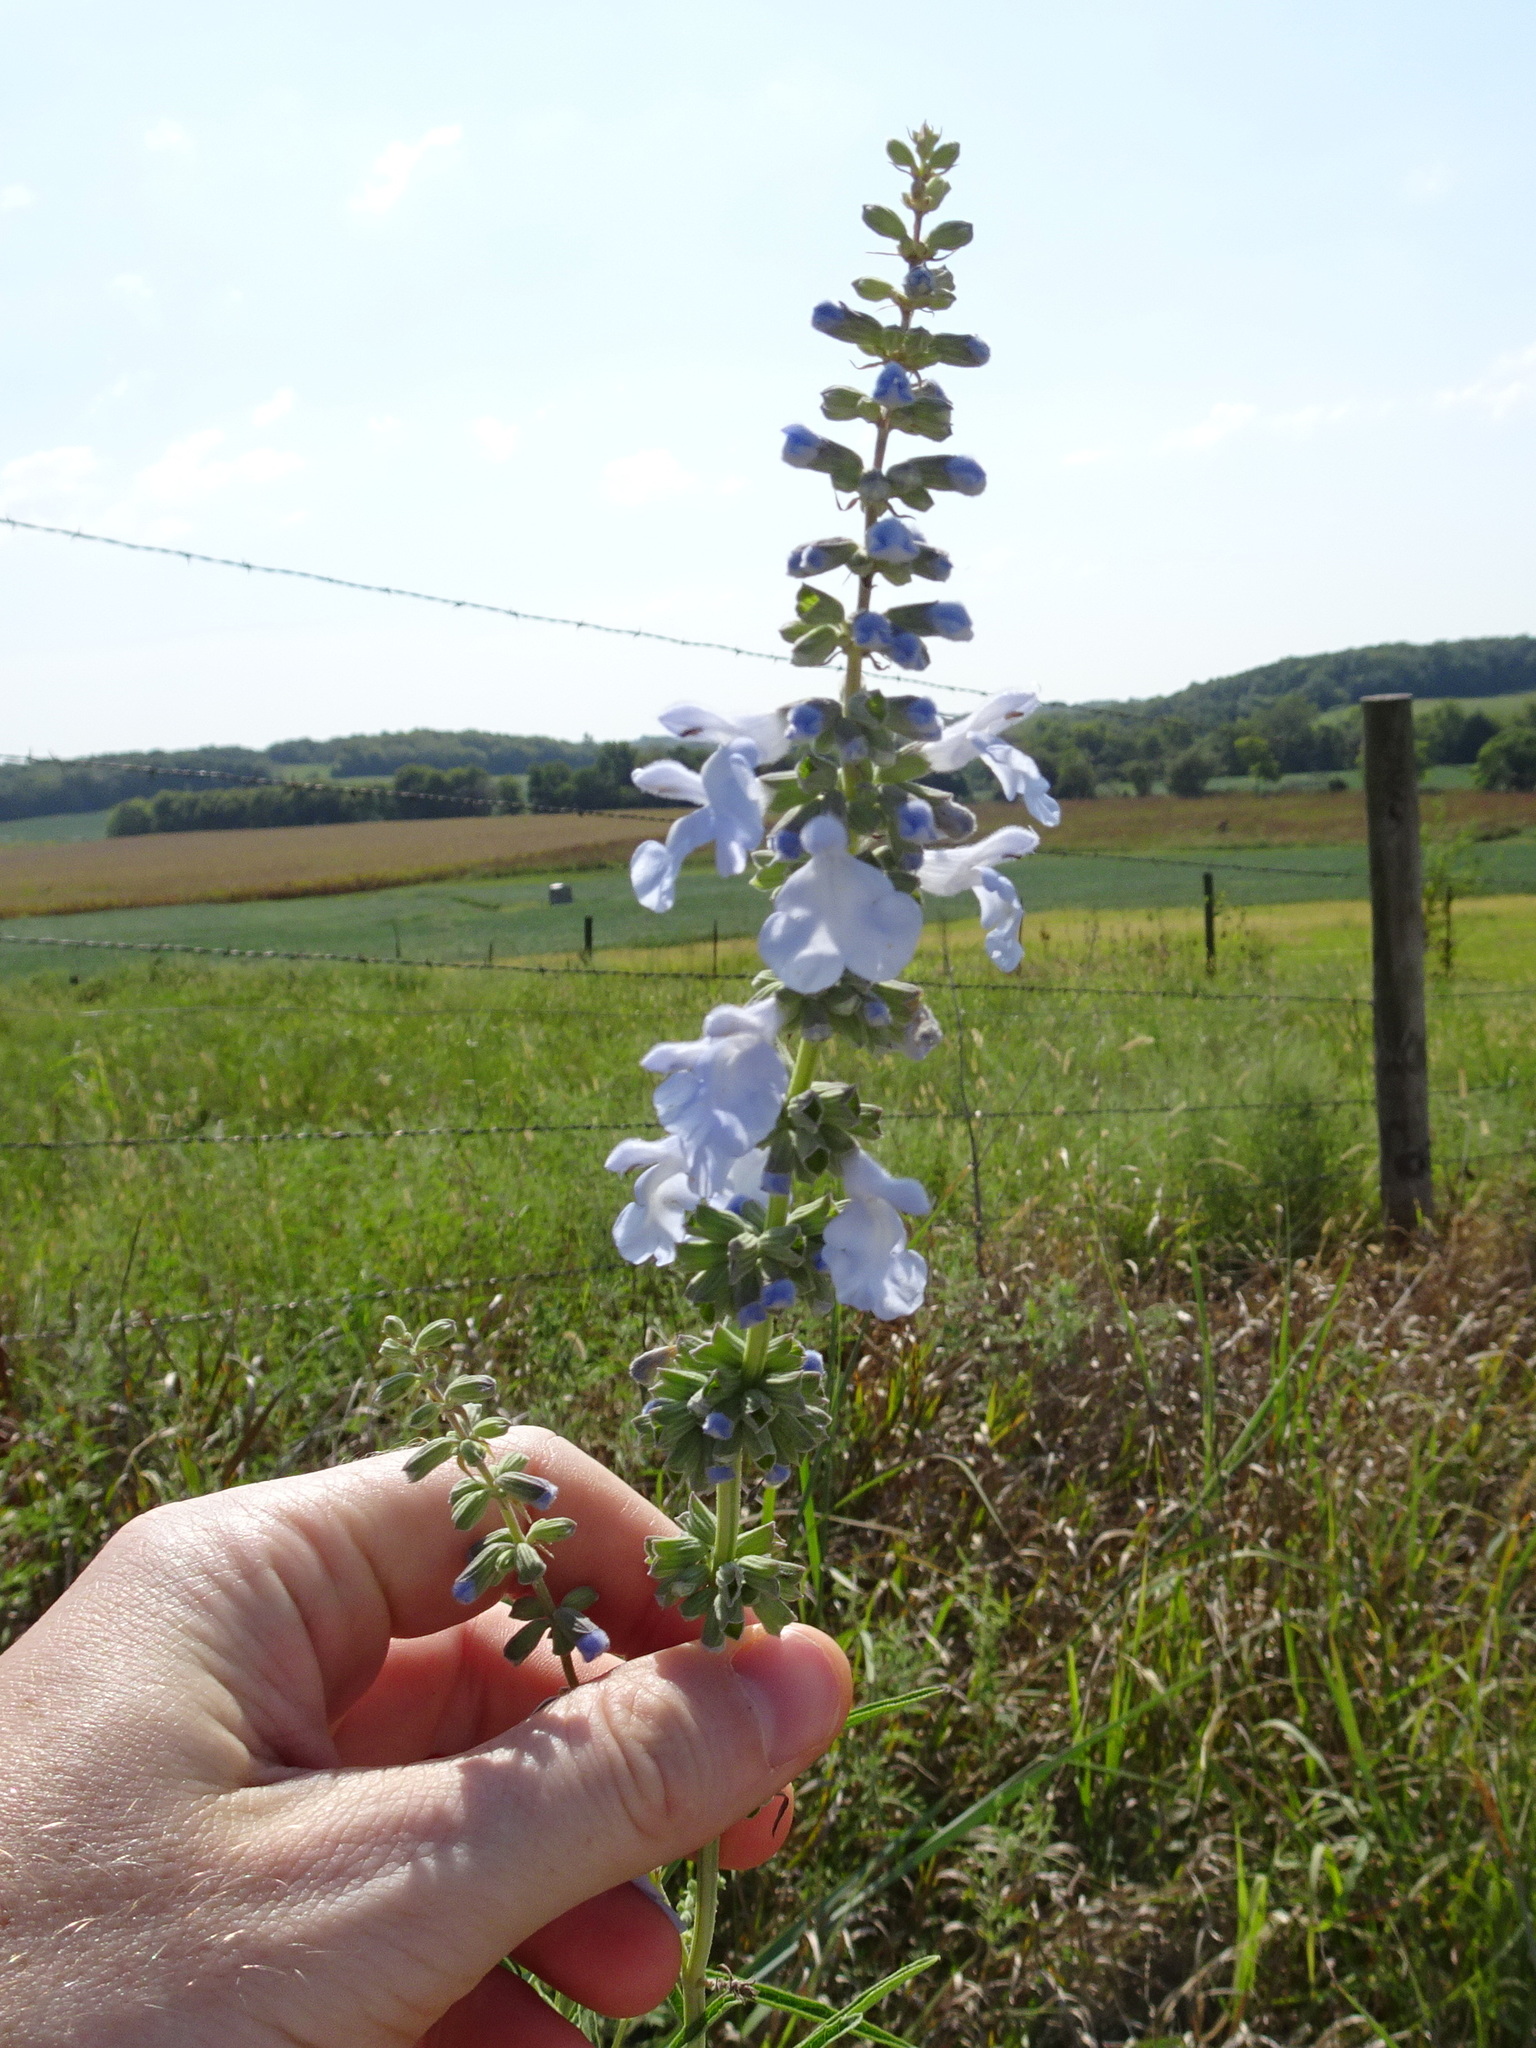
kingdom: Plantae
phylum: Tracheophyta
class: Magnoliopsida
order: Lamiales
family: Lamiaceae
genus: Salvia
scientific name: Salvia azurea
